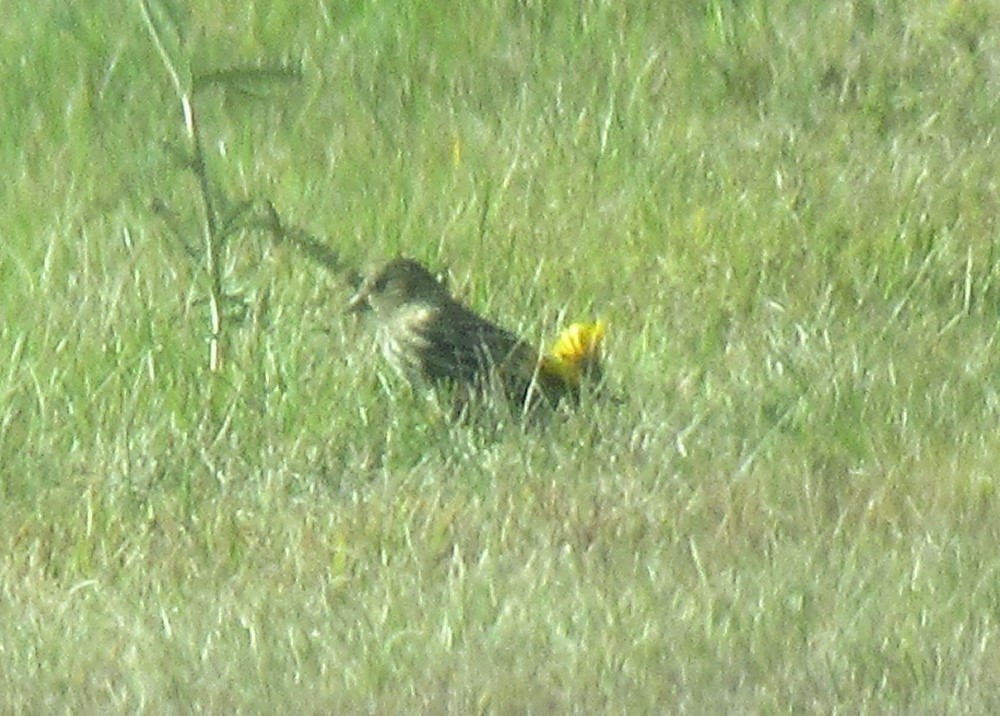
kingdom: Animalia
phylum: Chordata
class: Aves
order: Passeriformes
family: Fringillidae
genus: Spinus
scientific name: Spinus pinus
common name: Pine siskin
